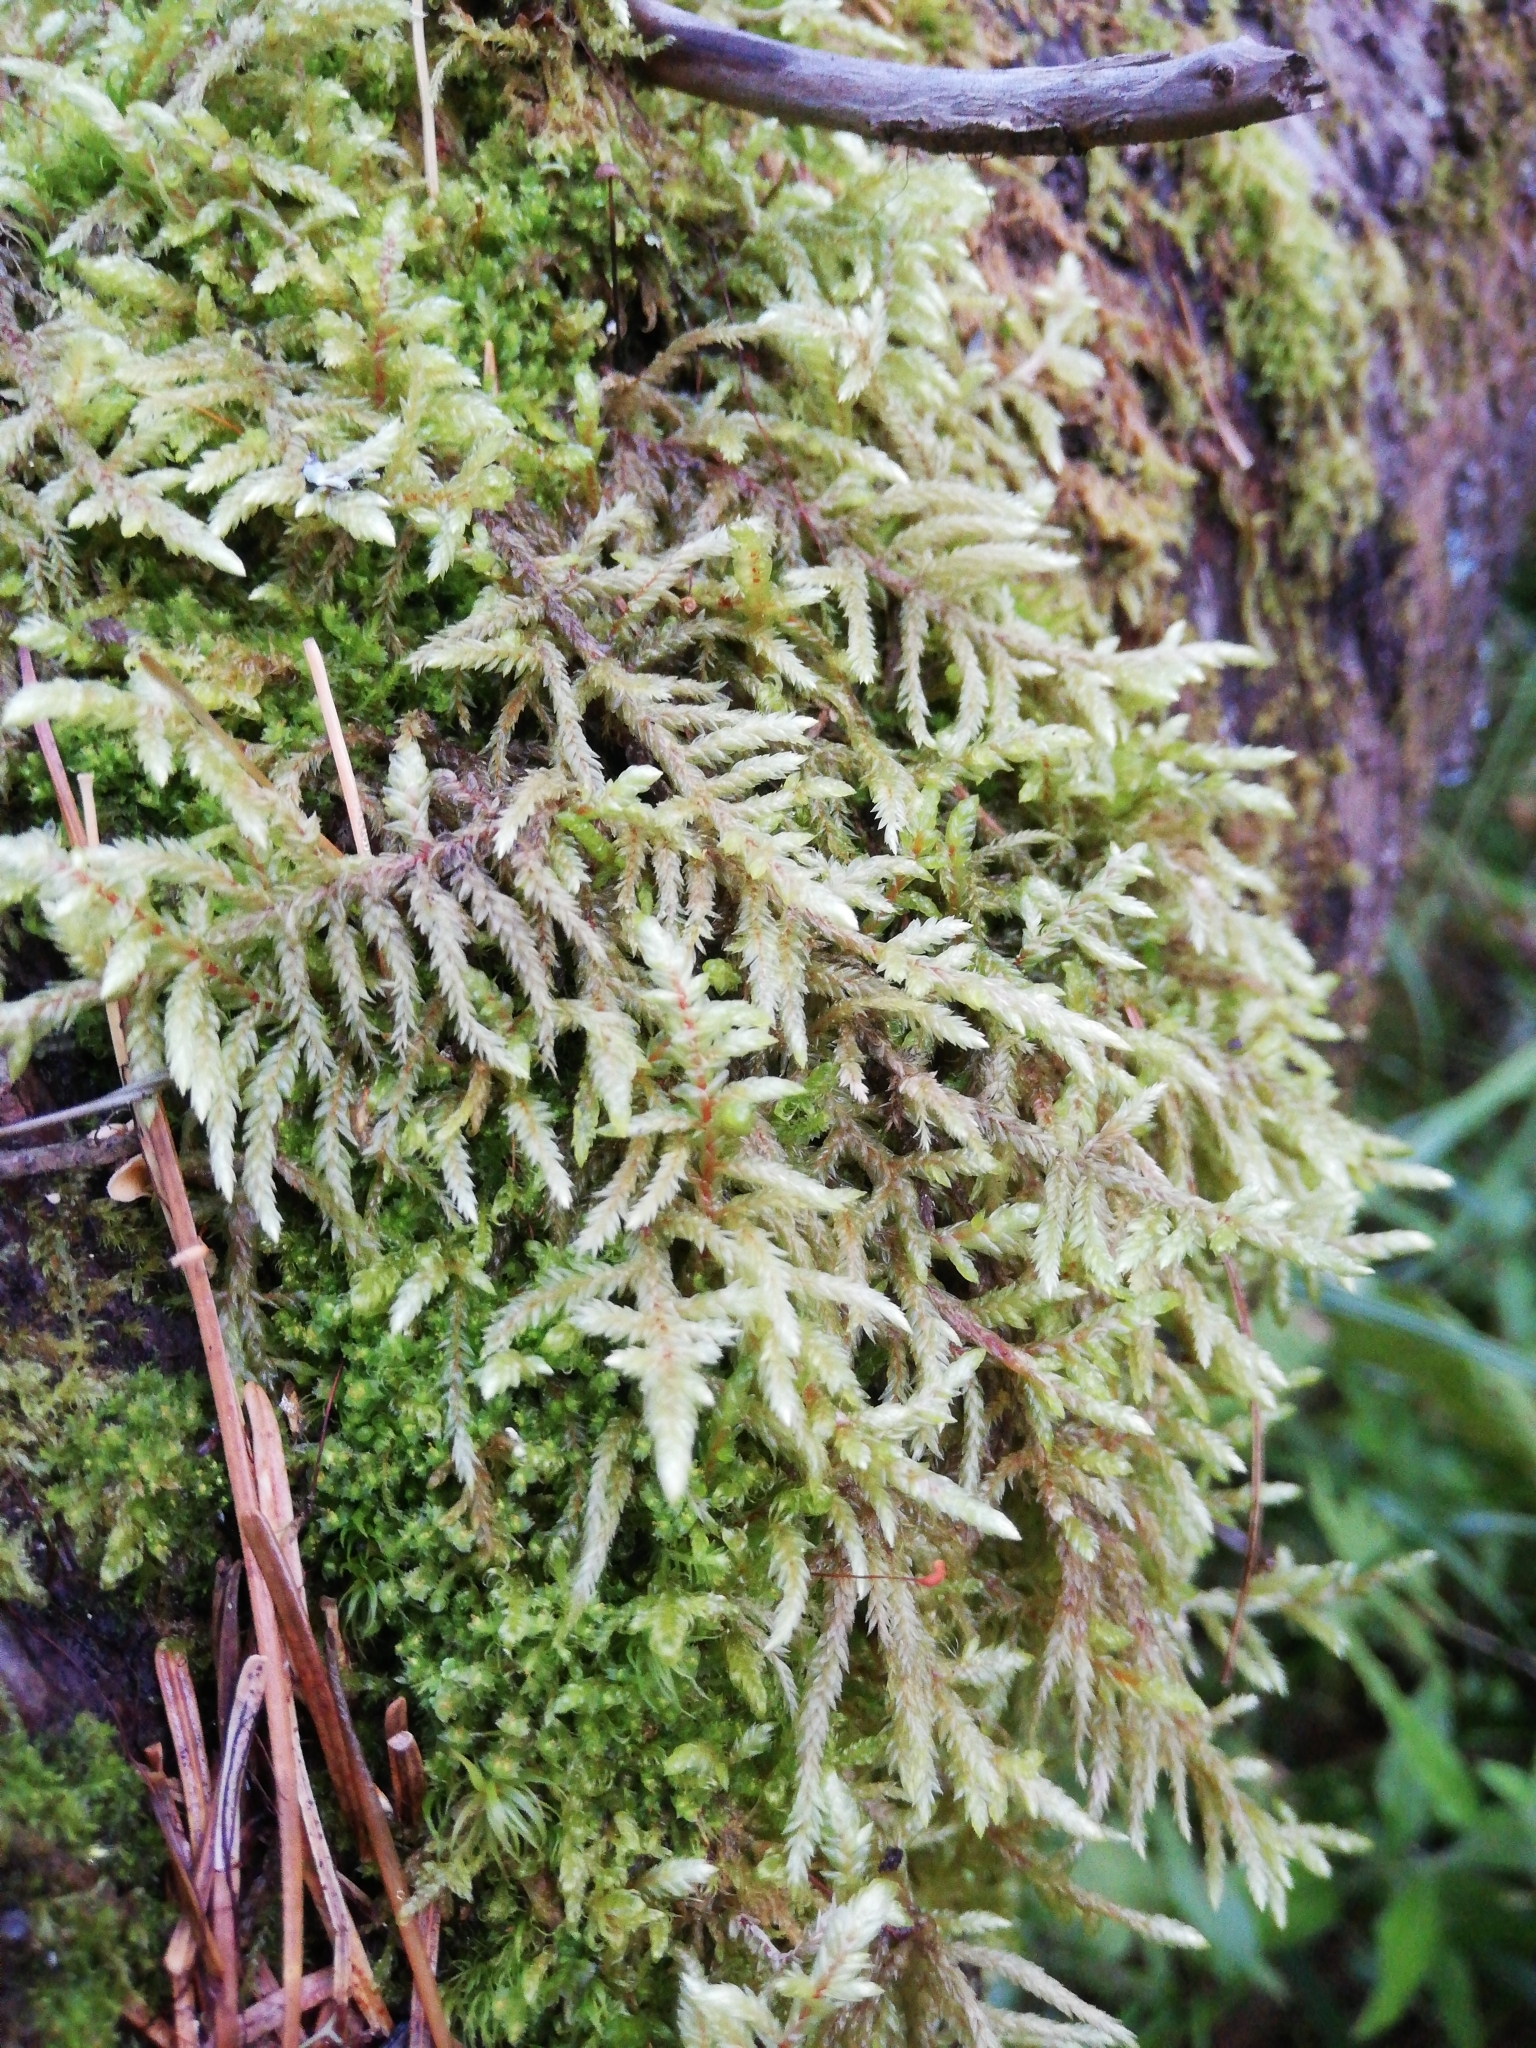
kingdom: Plantae
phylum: Bryophyta
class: Bryopsida
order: Hypnales
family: Hylocomiaceae
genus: Pleurozium
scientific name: Pleurozium schreberi
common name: Red-stemmed feather moss
